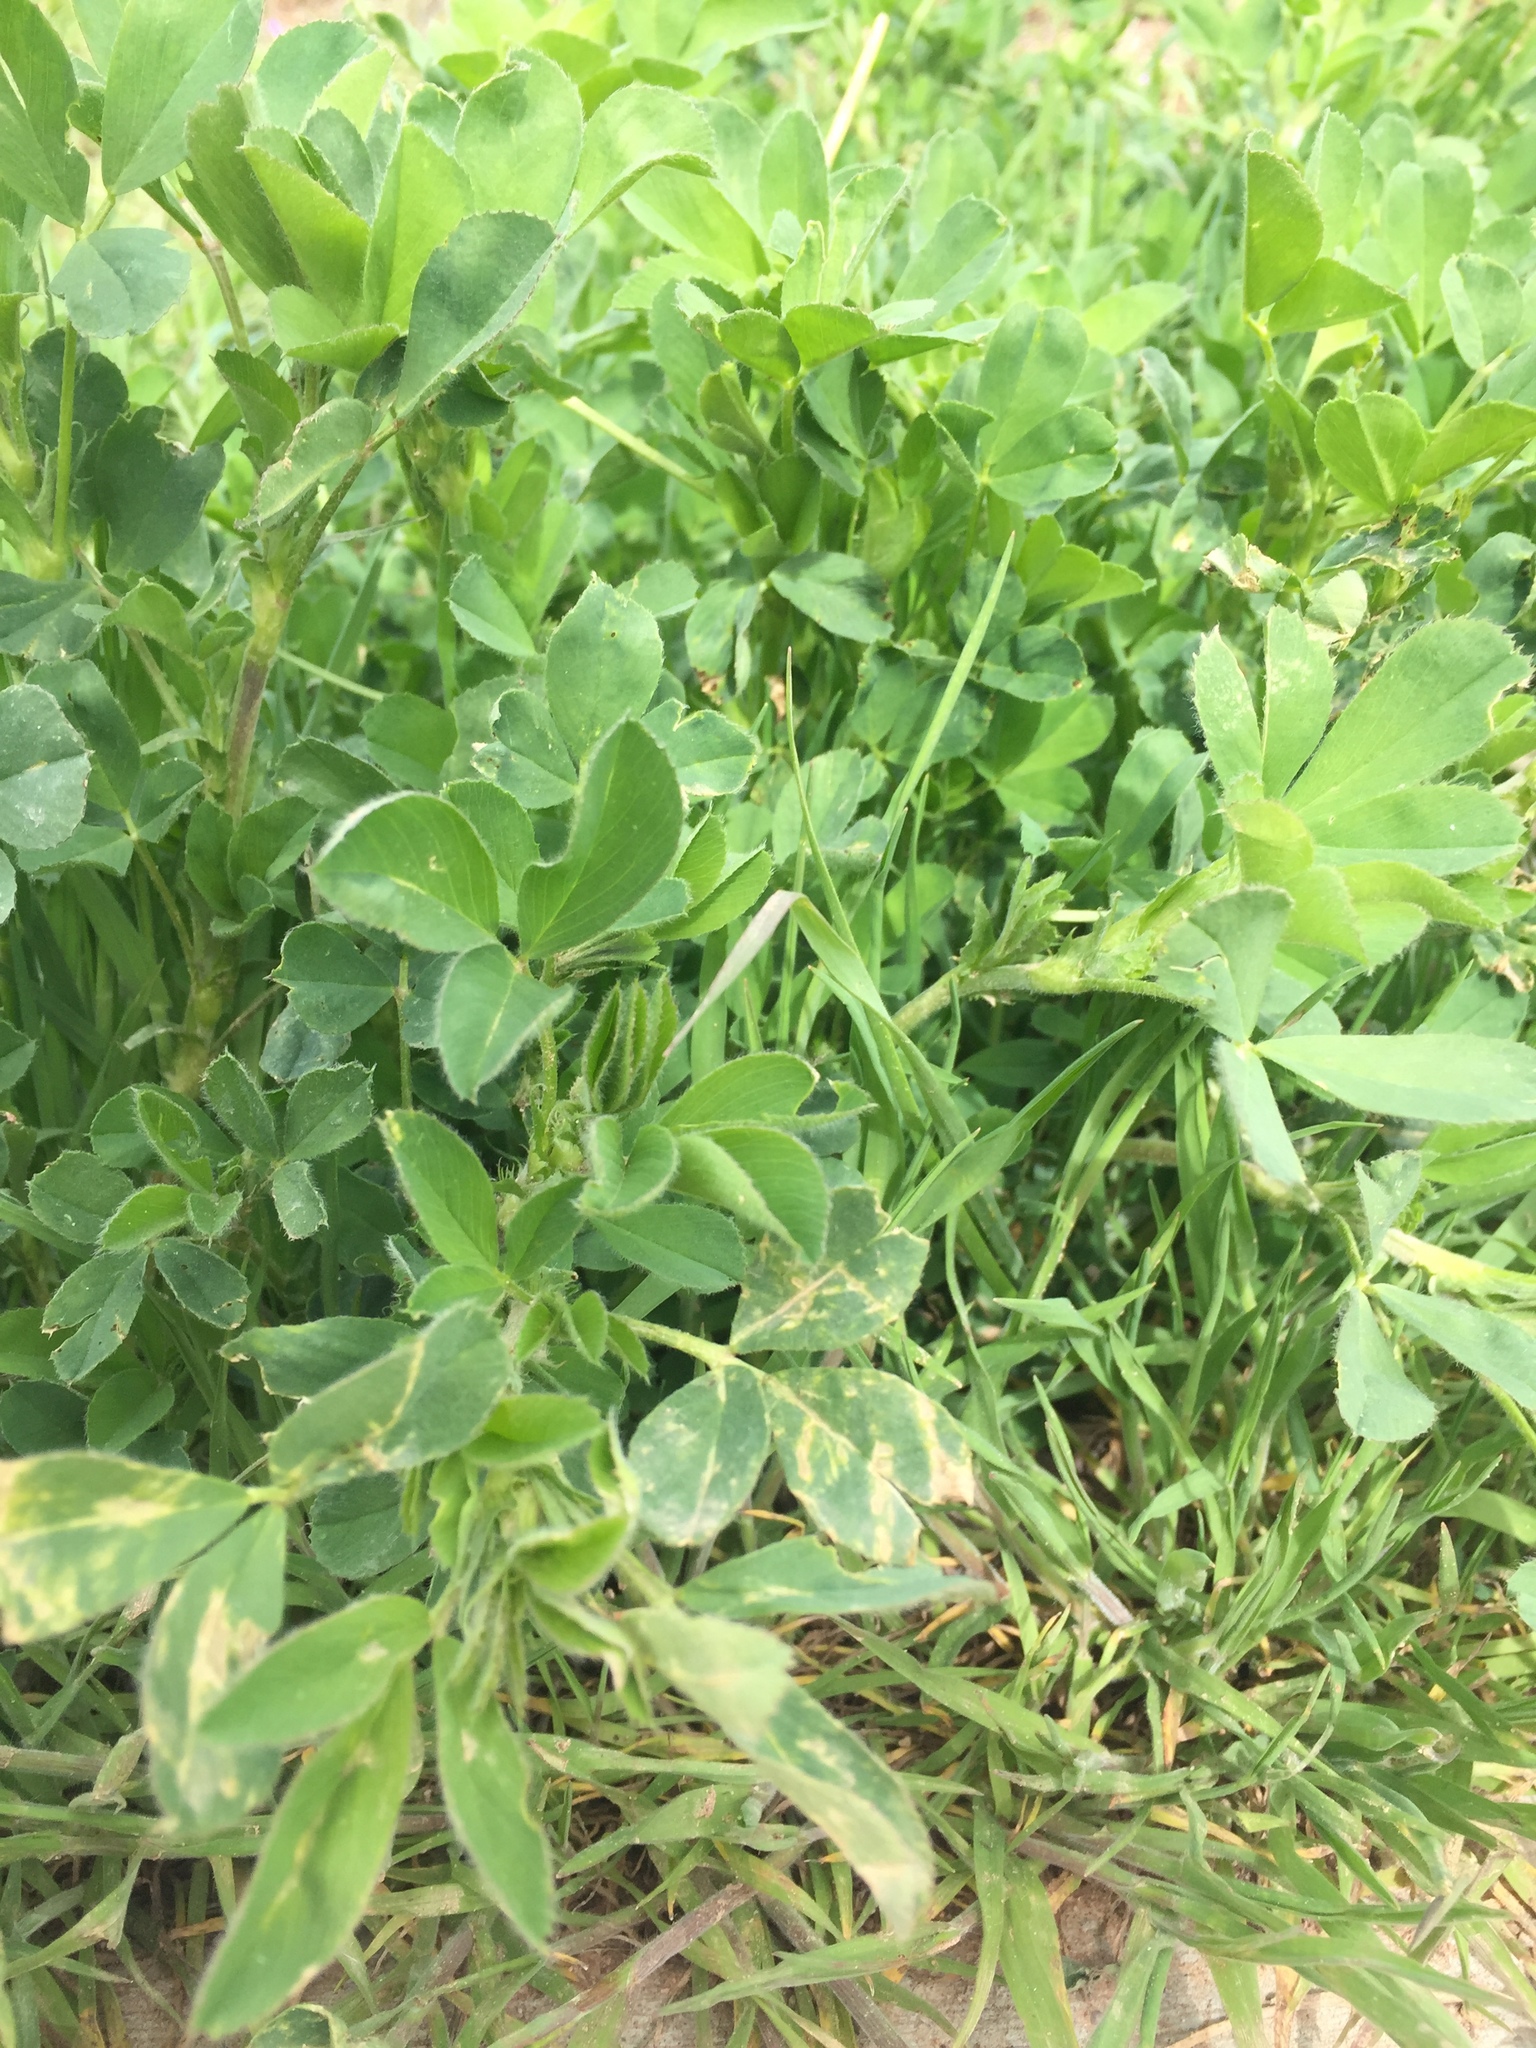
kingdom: Plantae
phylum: Tracheophyta
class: Magnoliopsida
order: Fabales
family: Fabaceae
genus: Medicago
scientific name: Medicago sativa
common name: Alfalfa
